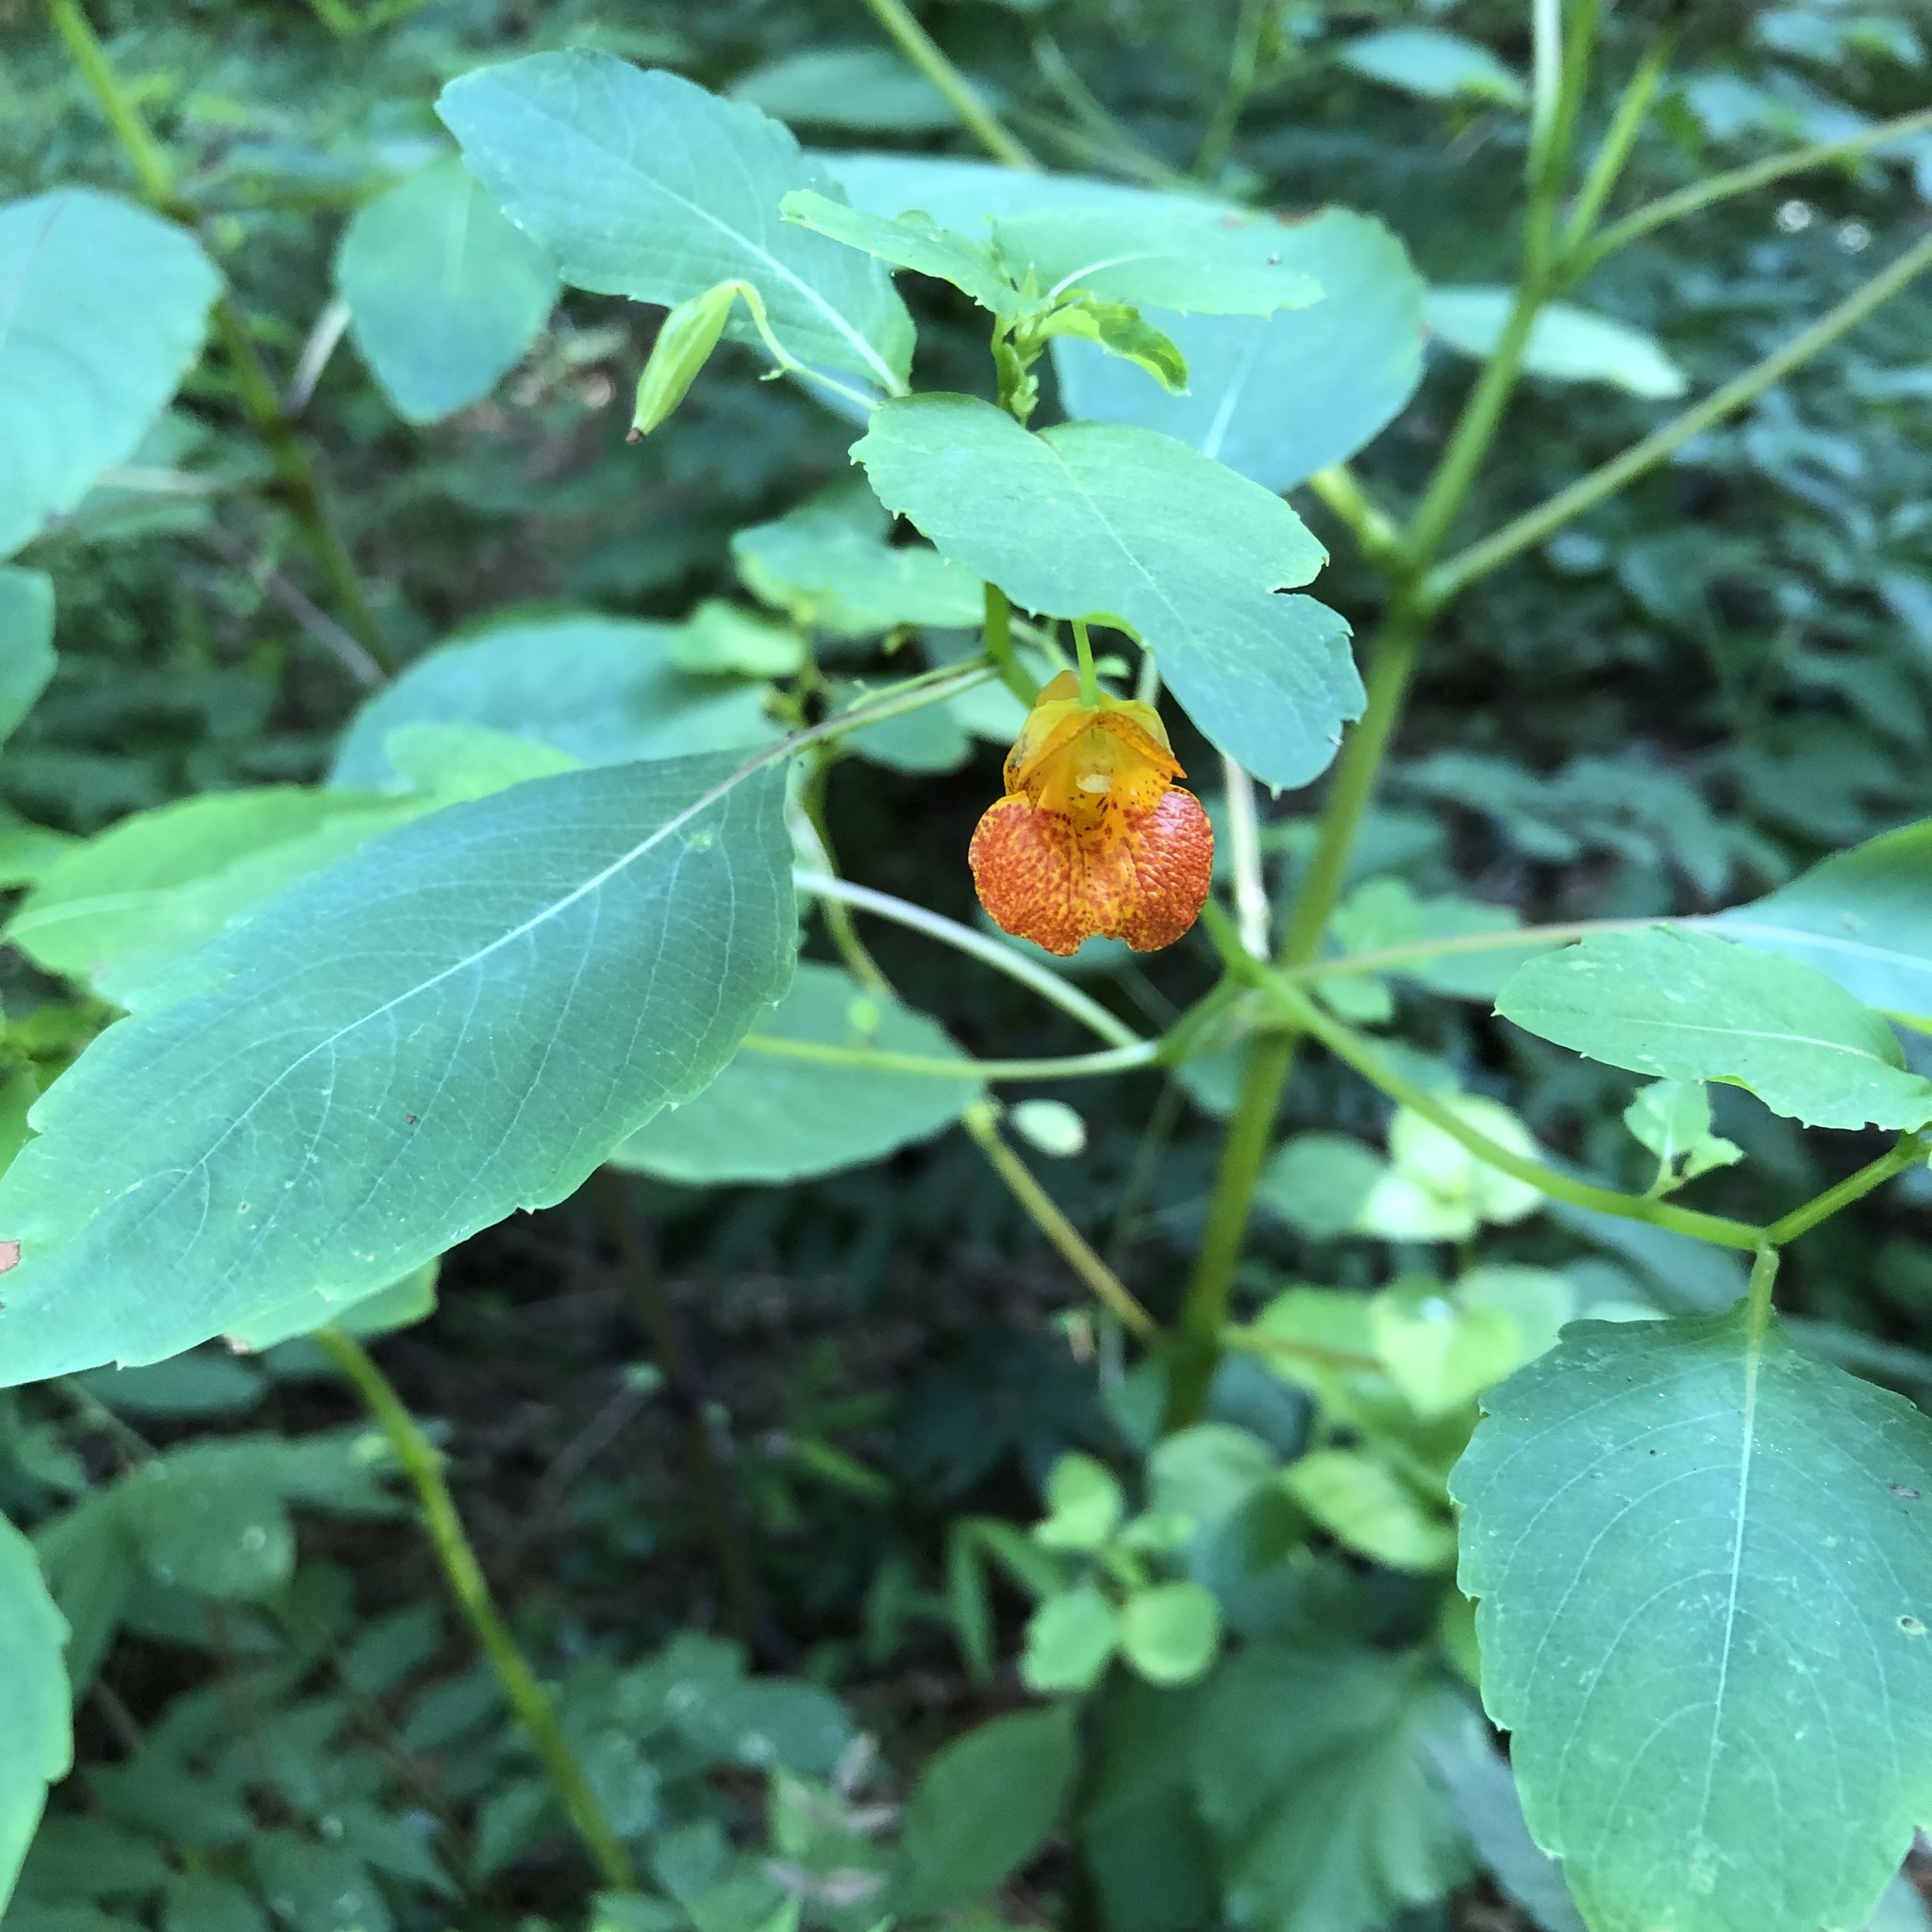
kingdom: Plantae
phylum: Tracheophyta
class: Magnoliopsida
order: Ericales
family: Balsaminaceae
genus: Impatiens
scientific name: Impatiens capensis
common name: Orange balsam
